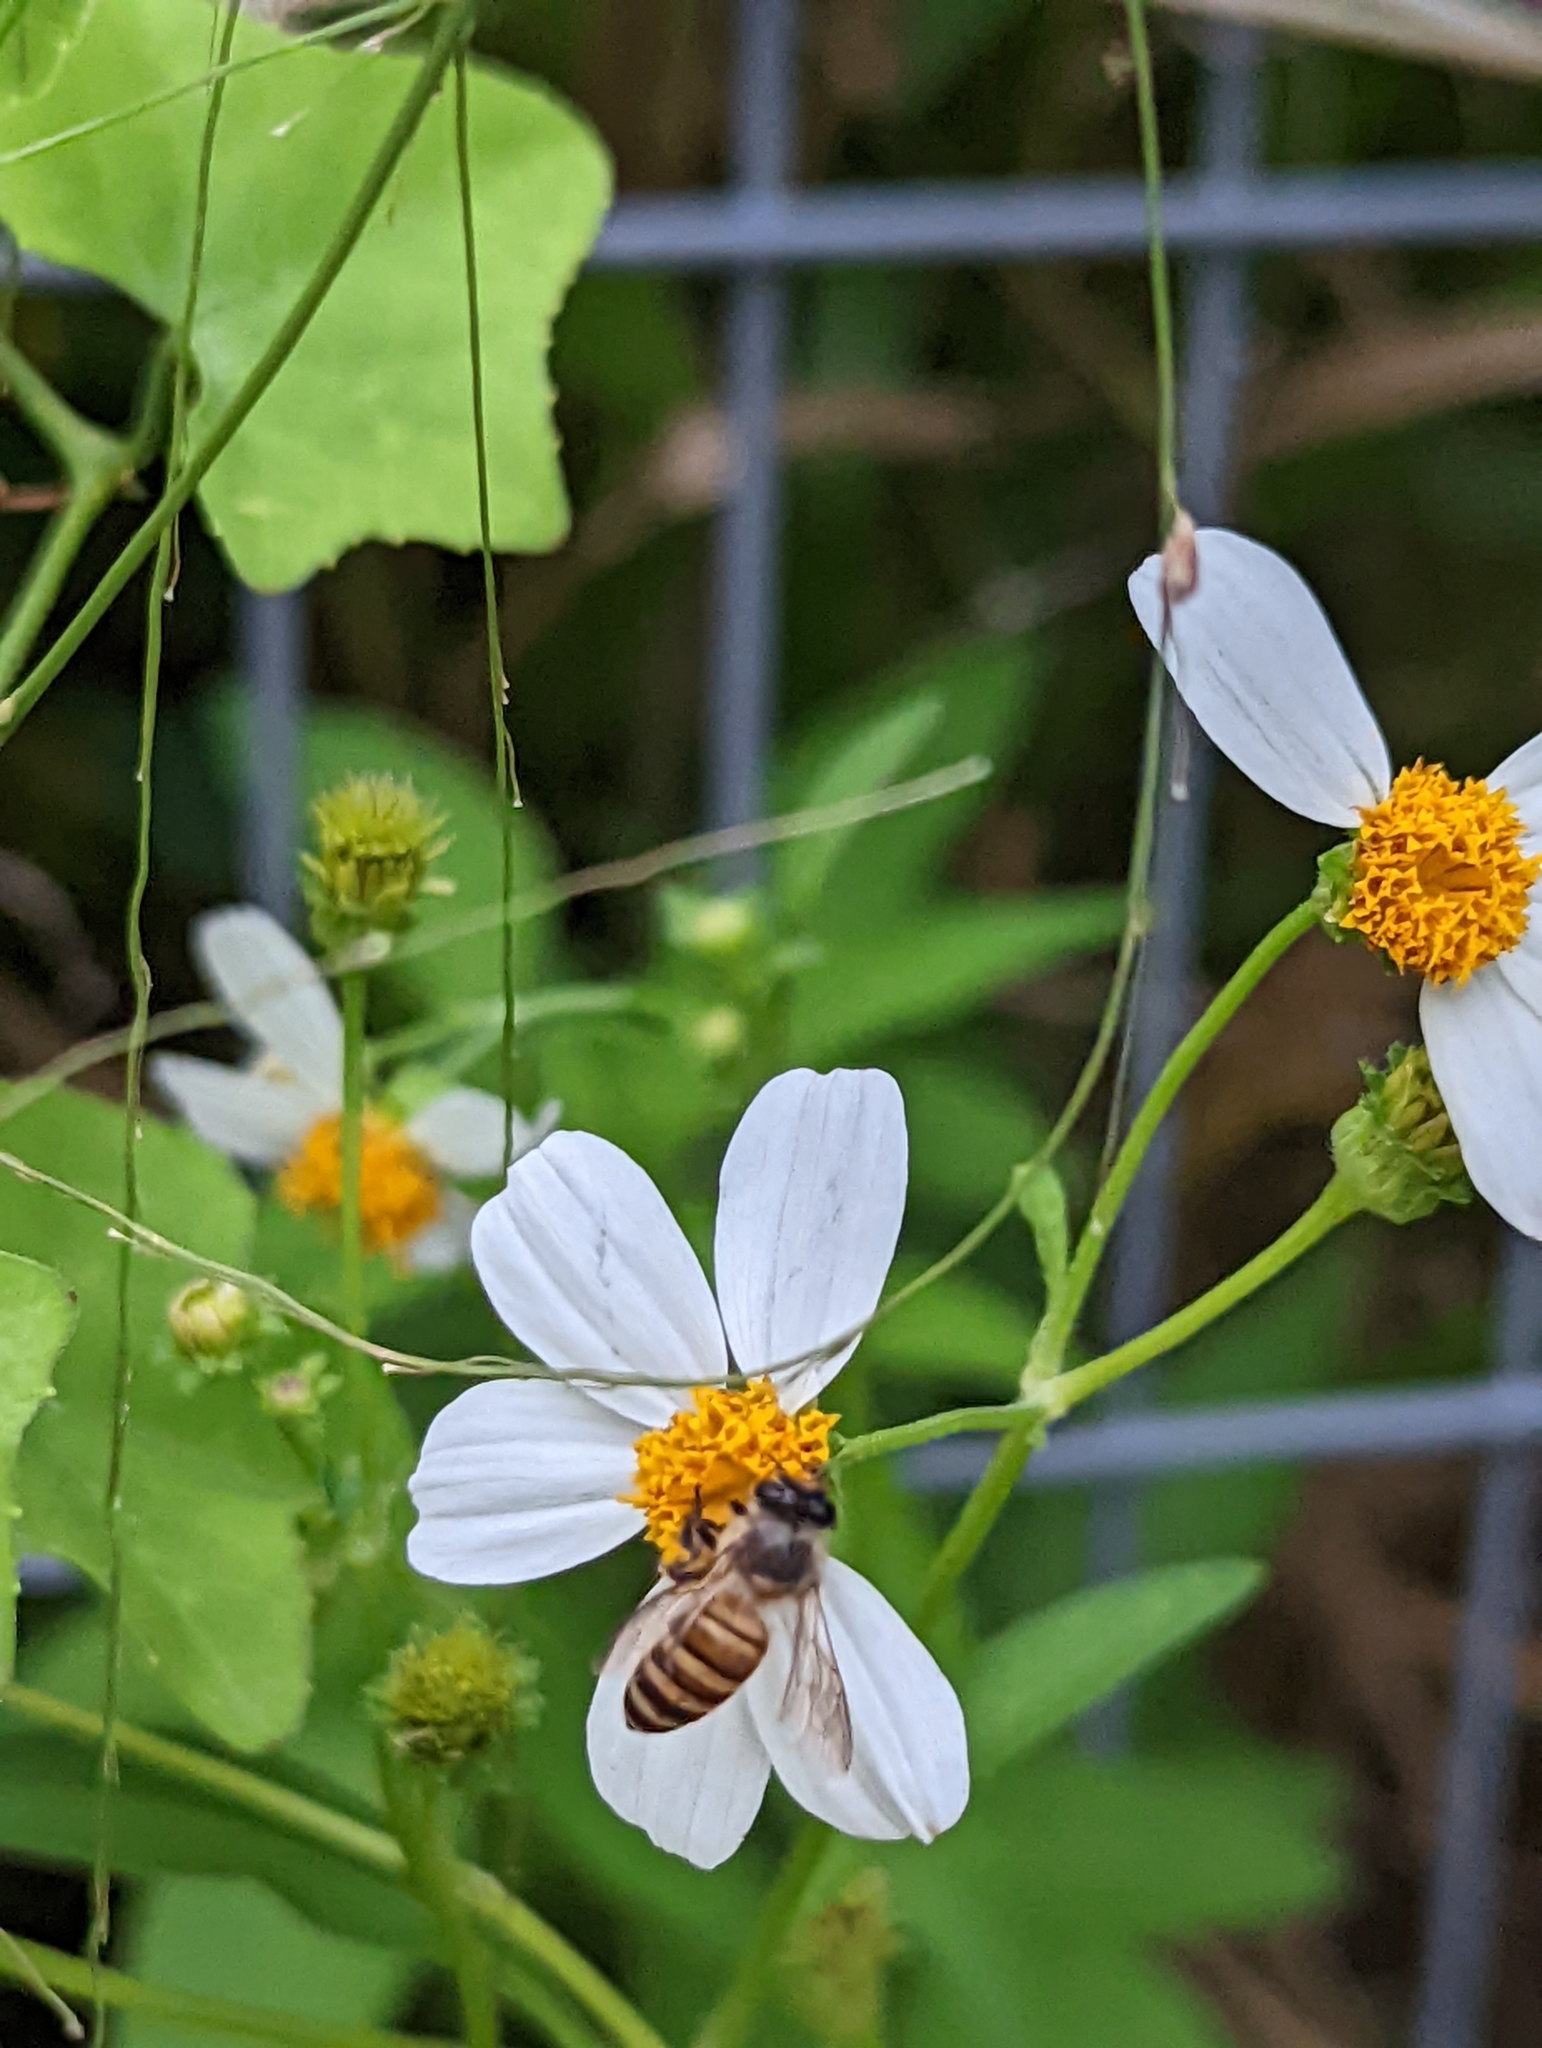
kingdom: Animalia
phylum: Arthropoda
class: Insecta
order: Hymenoptera
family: Apidae
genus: Apis
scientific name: Apis cerana
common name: Honey bee
